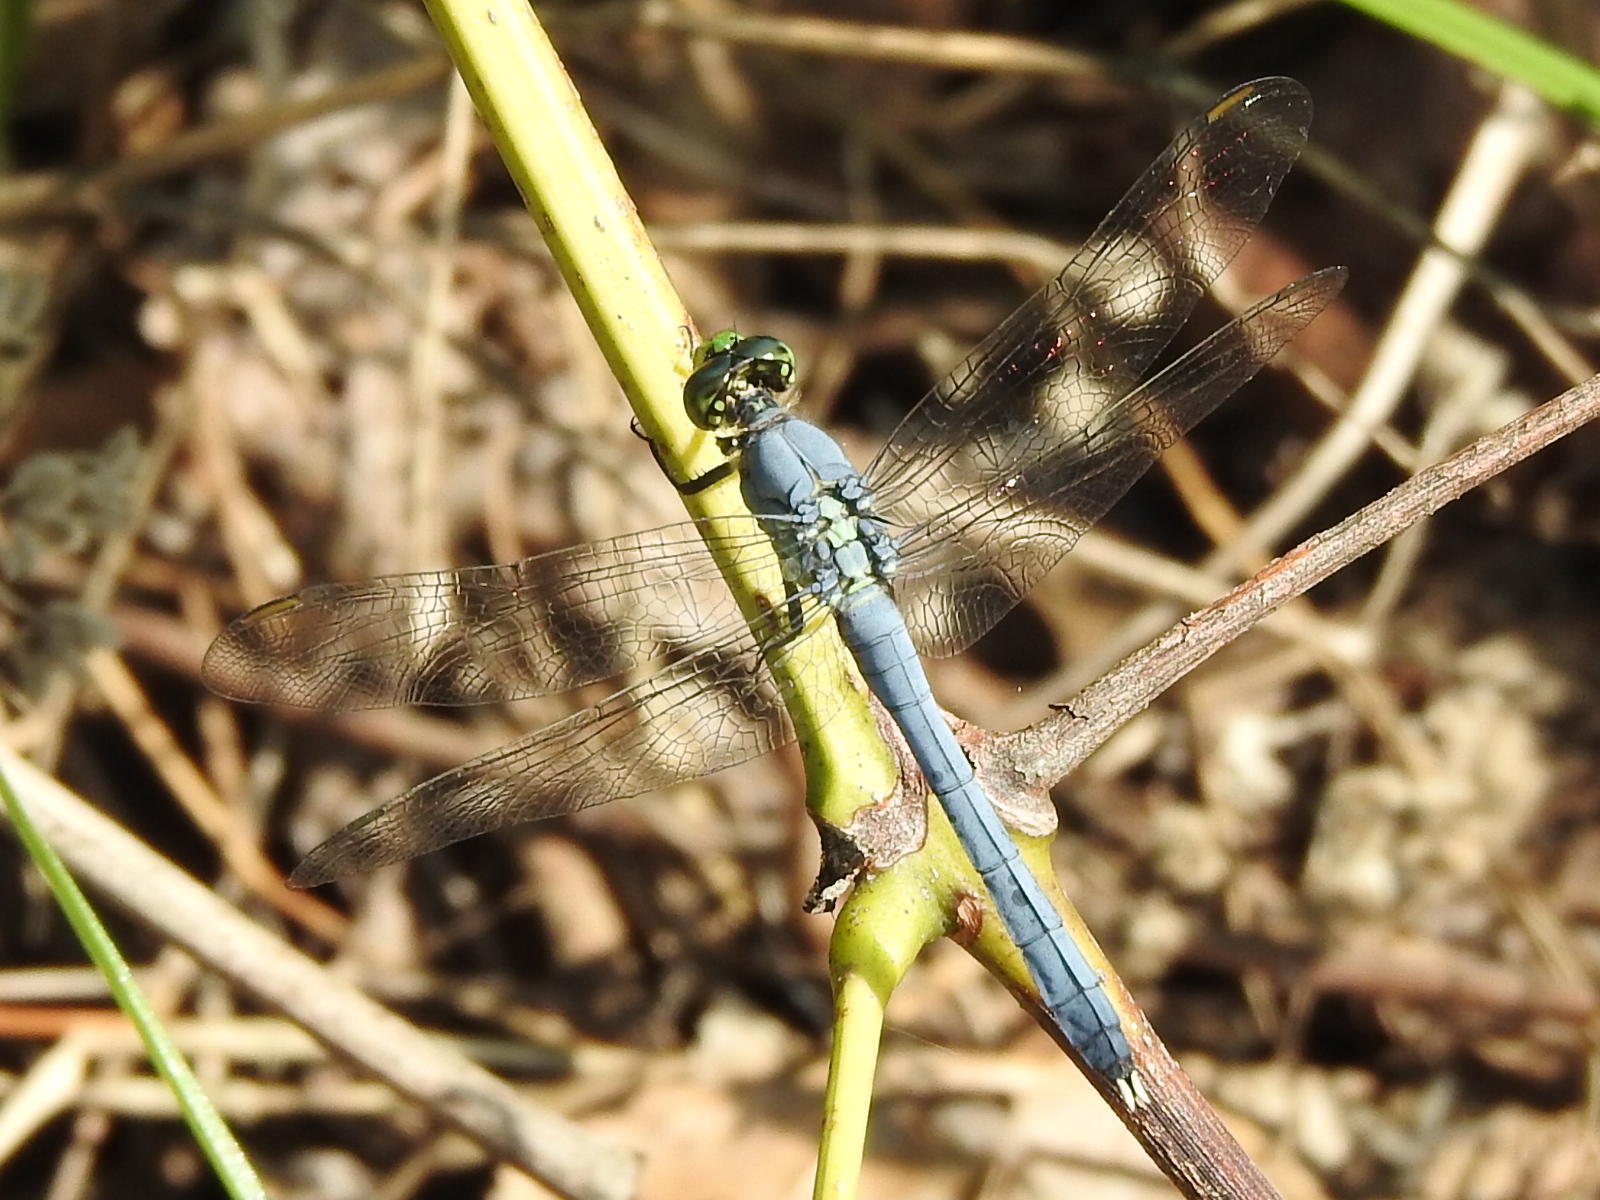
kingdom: Animalia
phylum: Arthropoda
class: Insecta
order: Odonata
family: Libellulidae
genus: Erythemis
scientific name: Erythemis simplicicollis
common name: Eastern pondhawk
